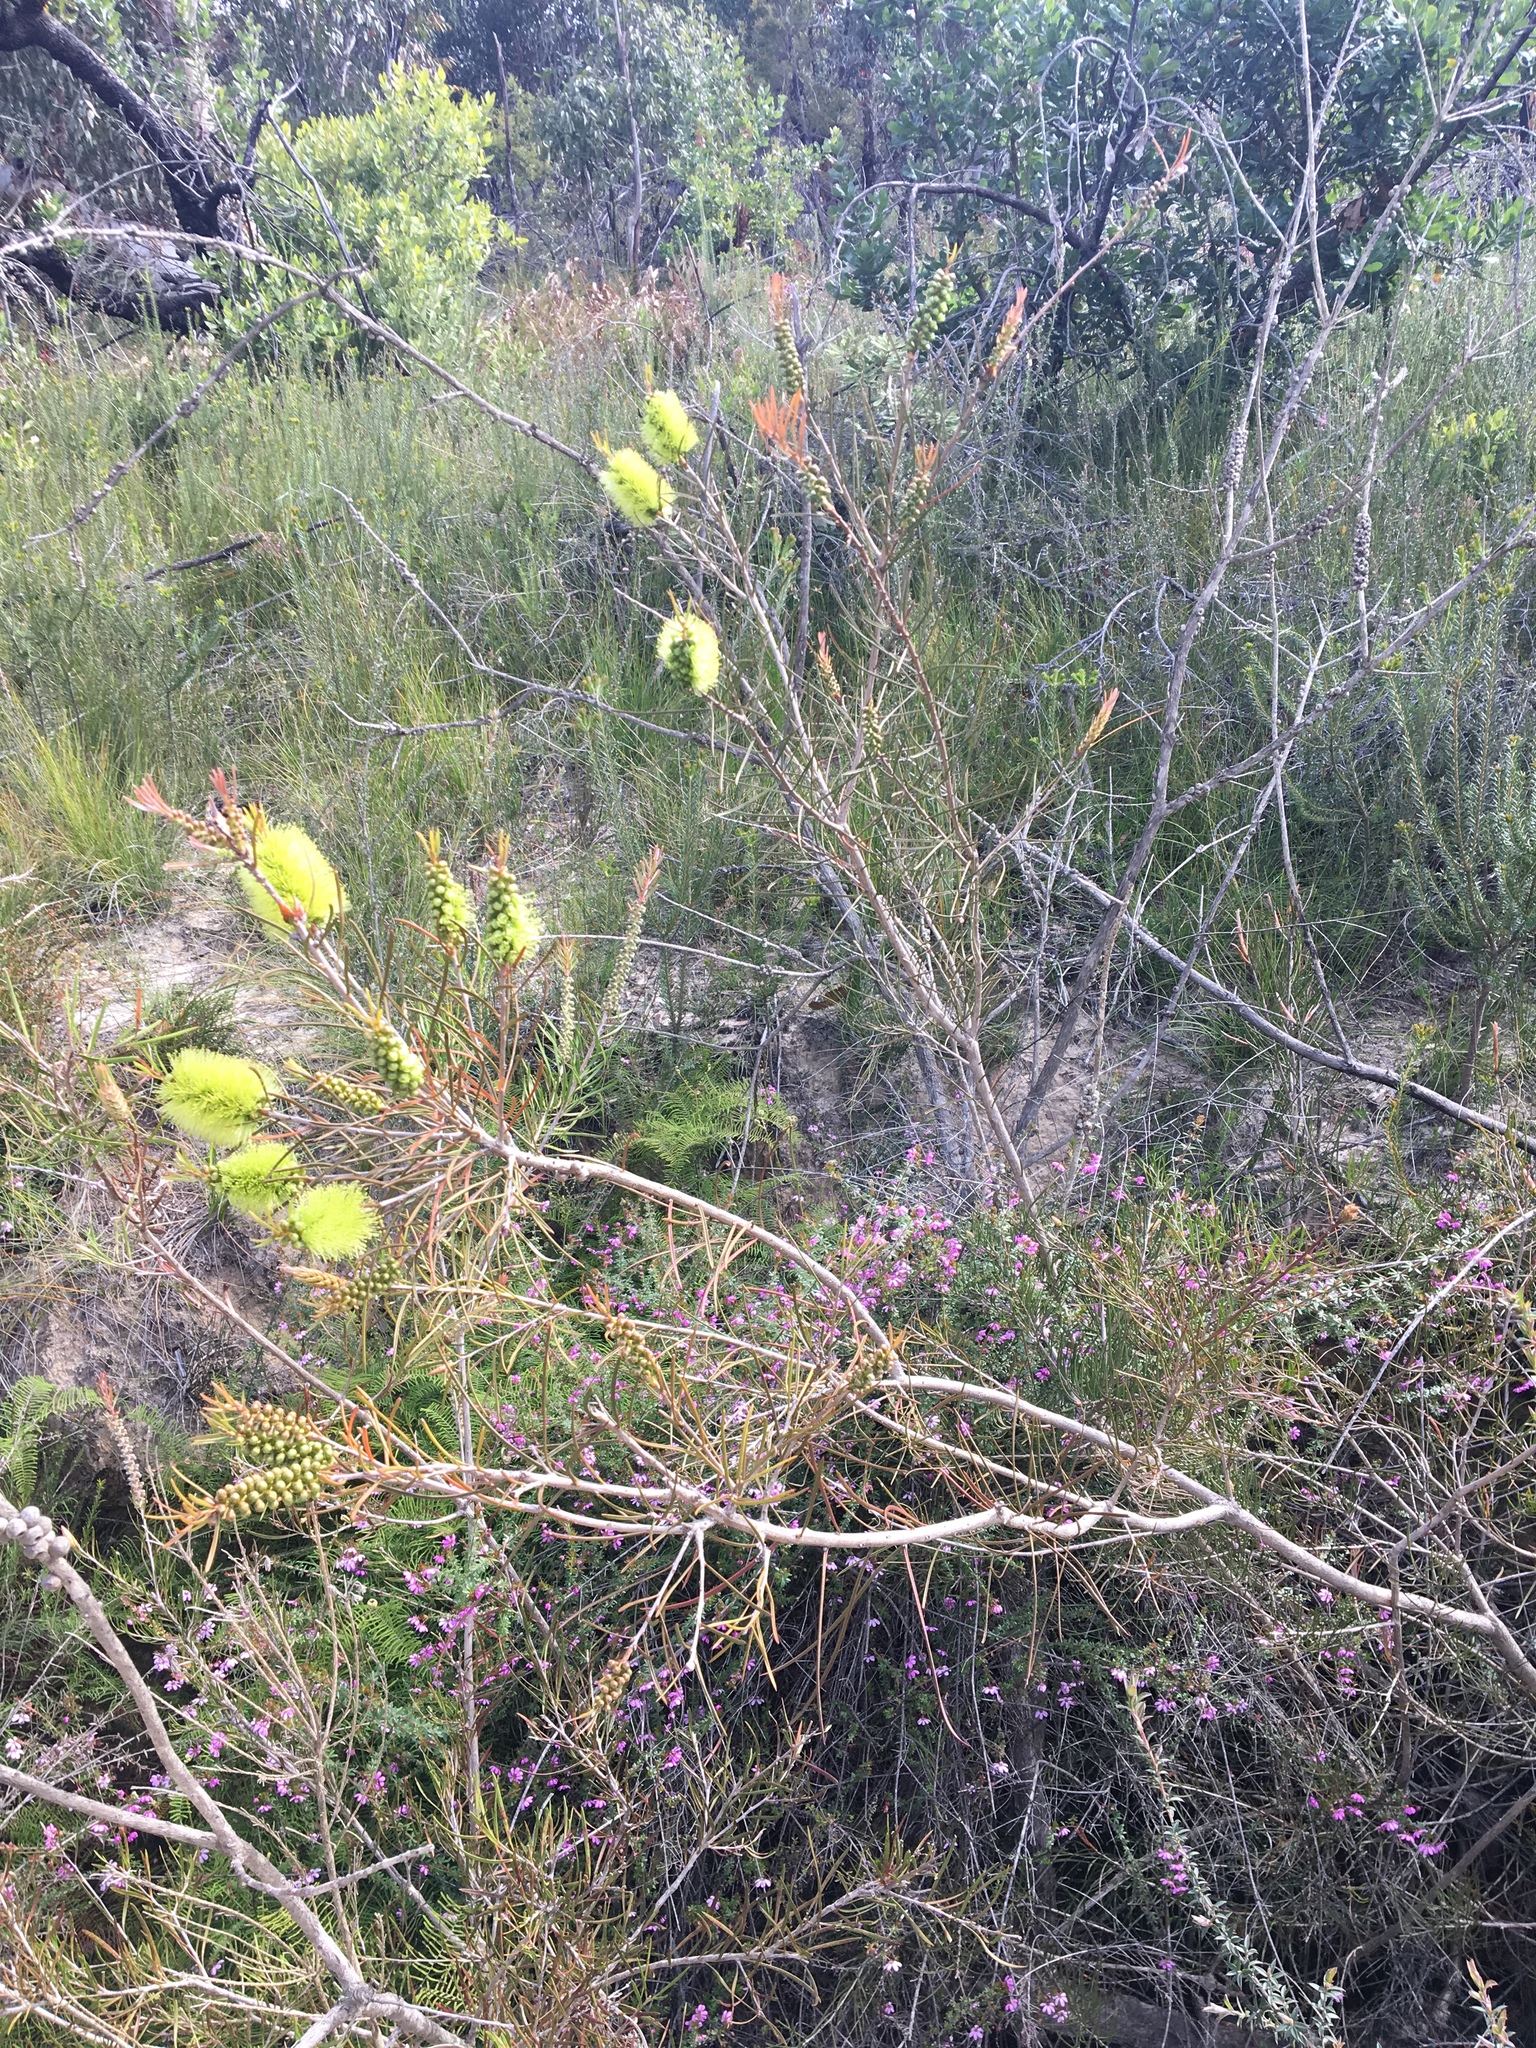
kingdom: Plantae
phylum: Tracheophyta
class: Magnoliopsida
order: Myrtales
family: Myrtaceae
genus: Callistemon
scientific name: Callistemon pinifolius
